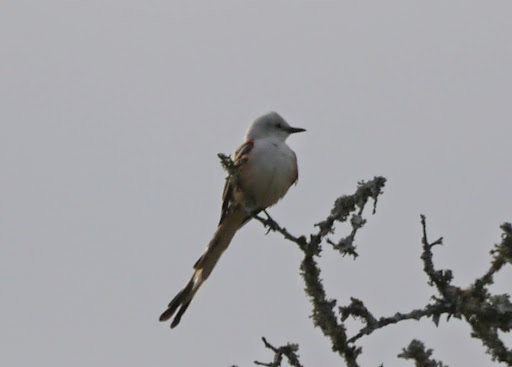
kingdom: Animalia
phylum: Chordata
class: Aves
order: Passeriformes
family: Tyrannidae
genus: Tyrannus
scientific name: Tyrannus forficatus
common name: Scissor-tailed flycatcher
